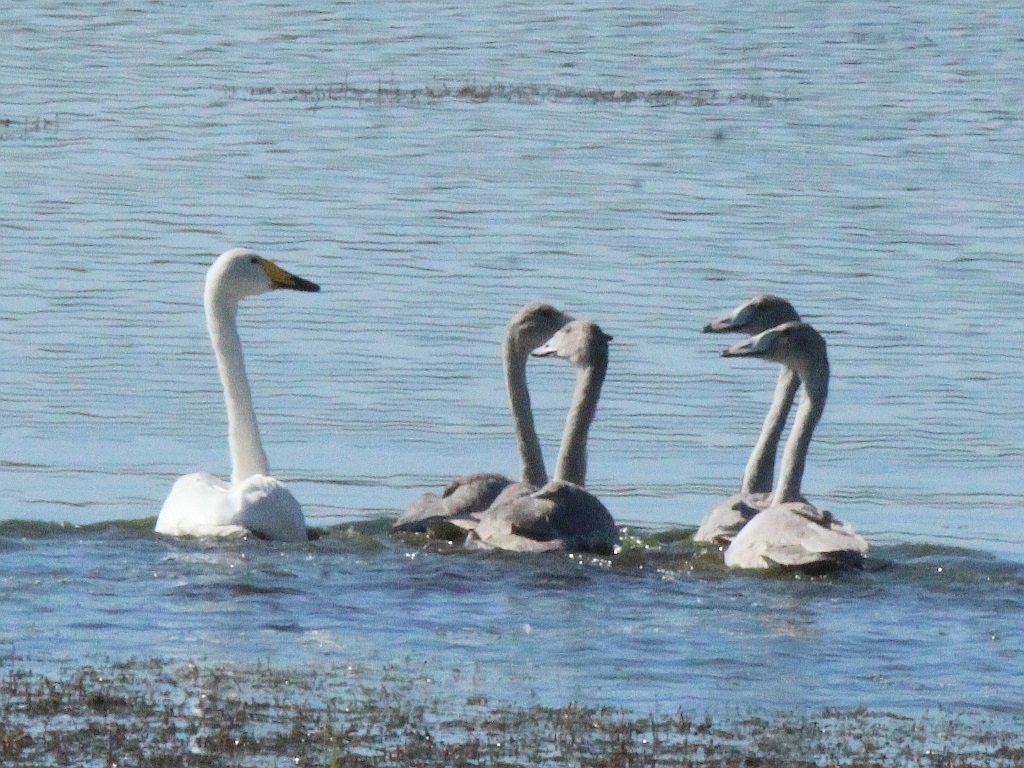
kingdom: Animalia
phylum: Chordata
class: Aves
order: Anseriformes
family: Anatidae
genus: Cygnus
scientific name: Cygnus cygnus
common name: Whooper swan
